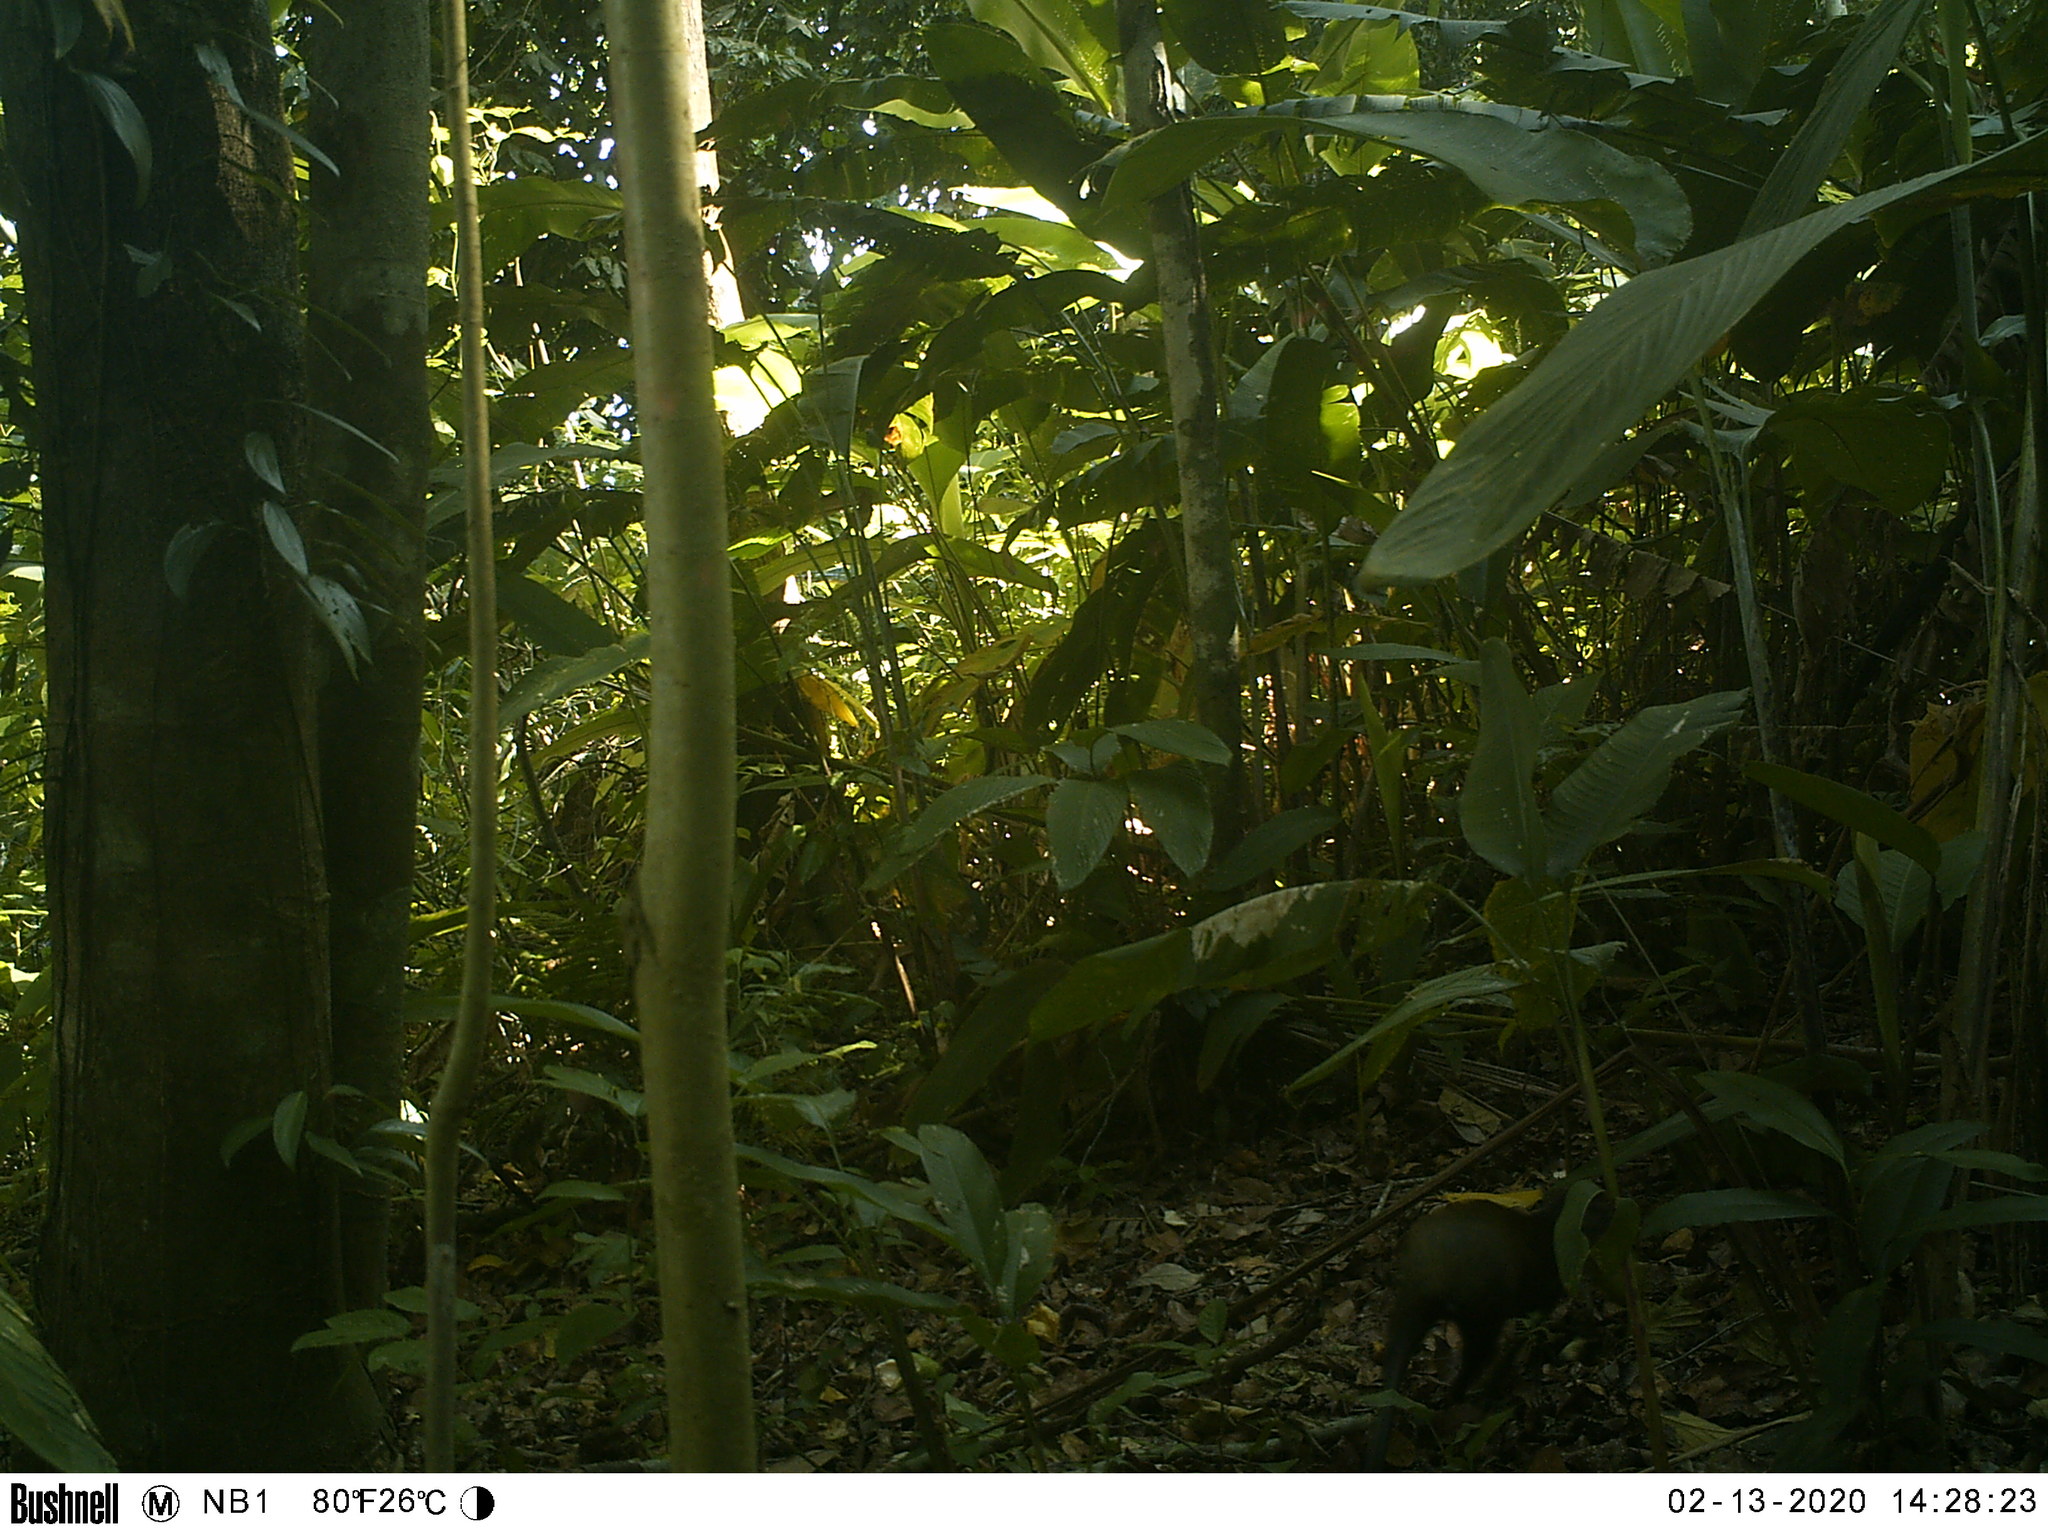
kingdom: Animalia
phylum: Chordata
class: Mammalia
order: Rodentia
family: Dasyproctidae
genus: Dasyprocta
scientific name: Dasyprocta punctata
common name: Central american agouti
